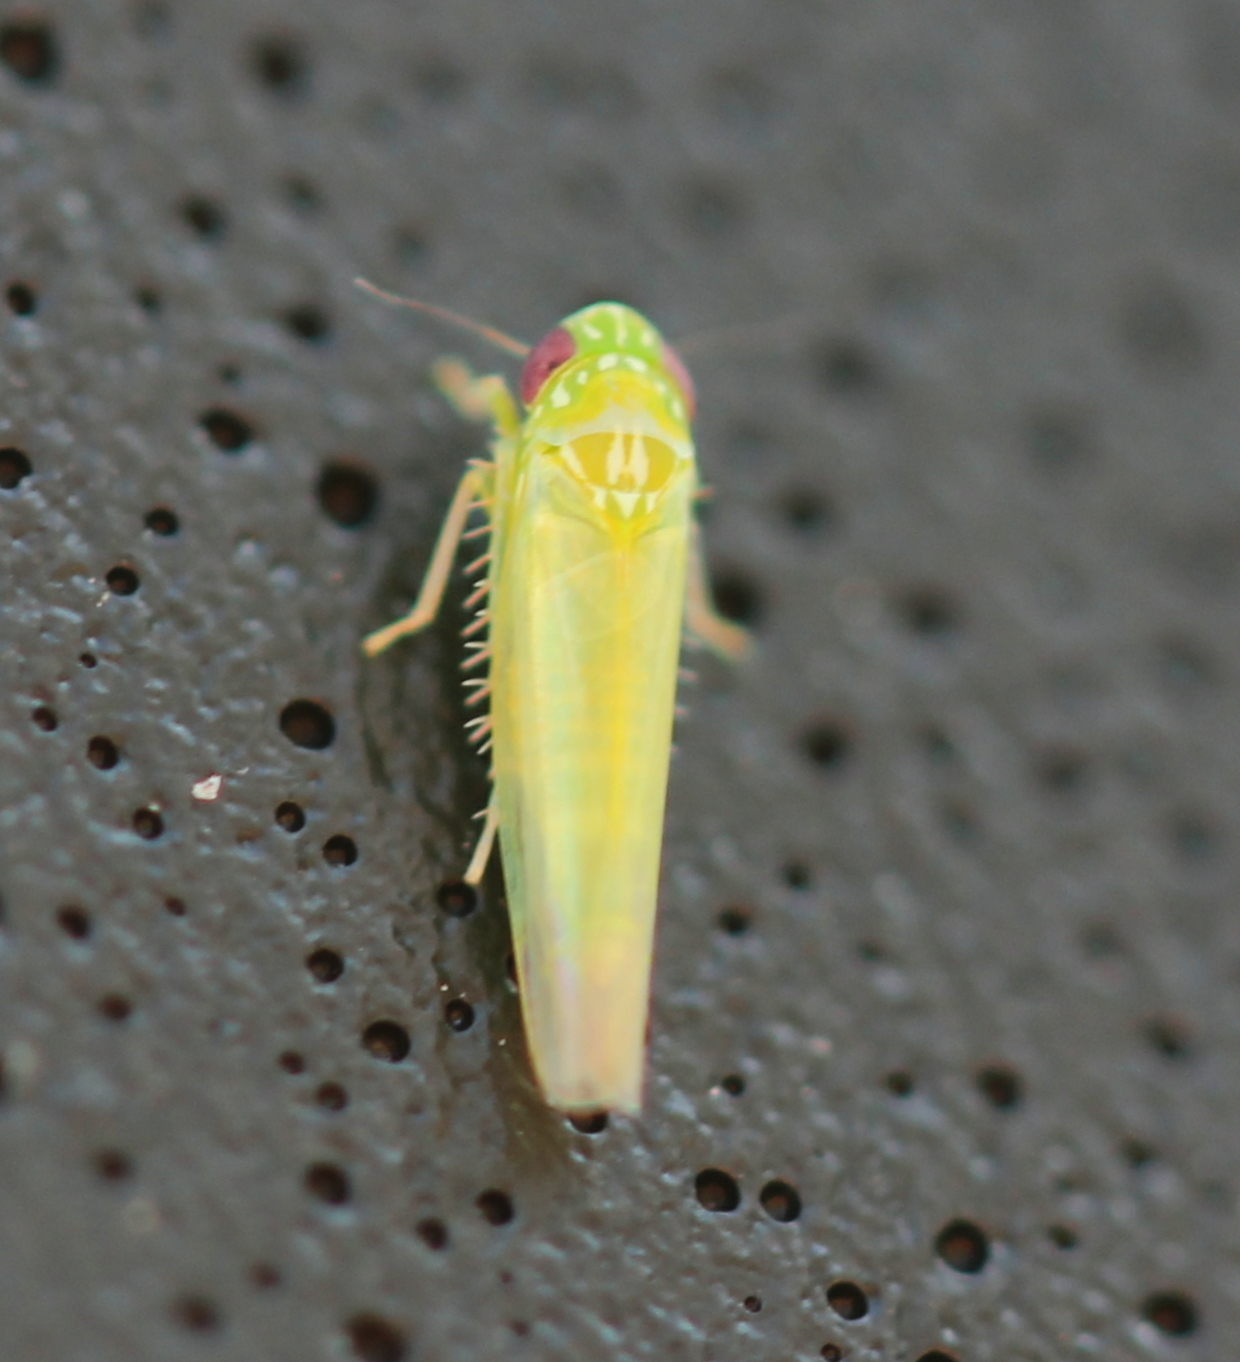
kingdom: Animalia
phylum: Arthropoda
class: Insecta
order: Hemiptera
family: Cicadellidae
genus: Empoasca
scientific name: Empoasca fabae
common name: Potato leafhopper
